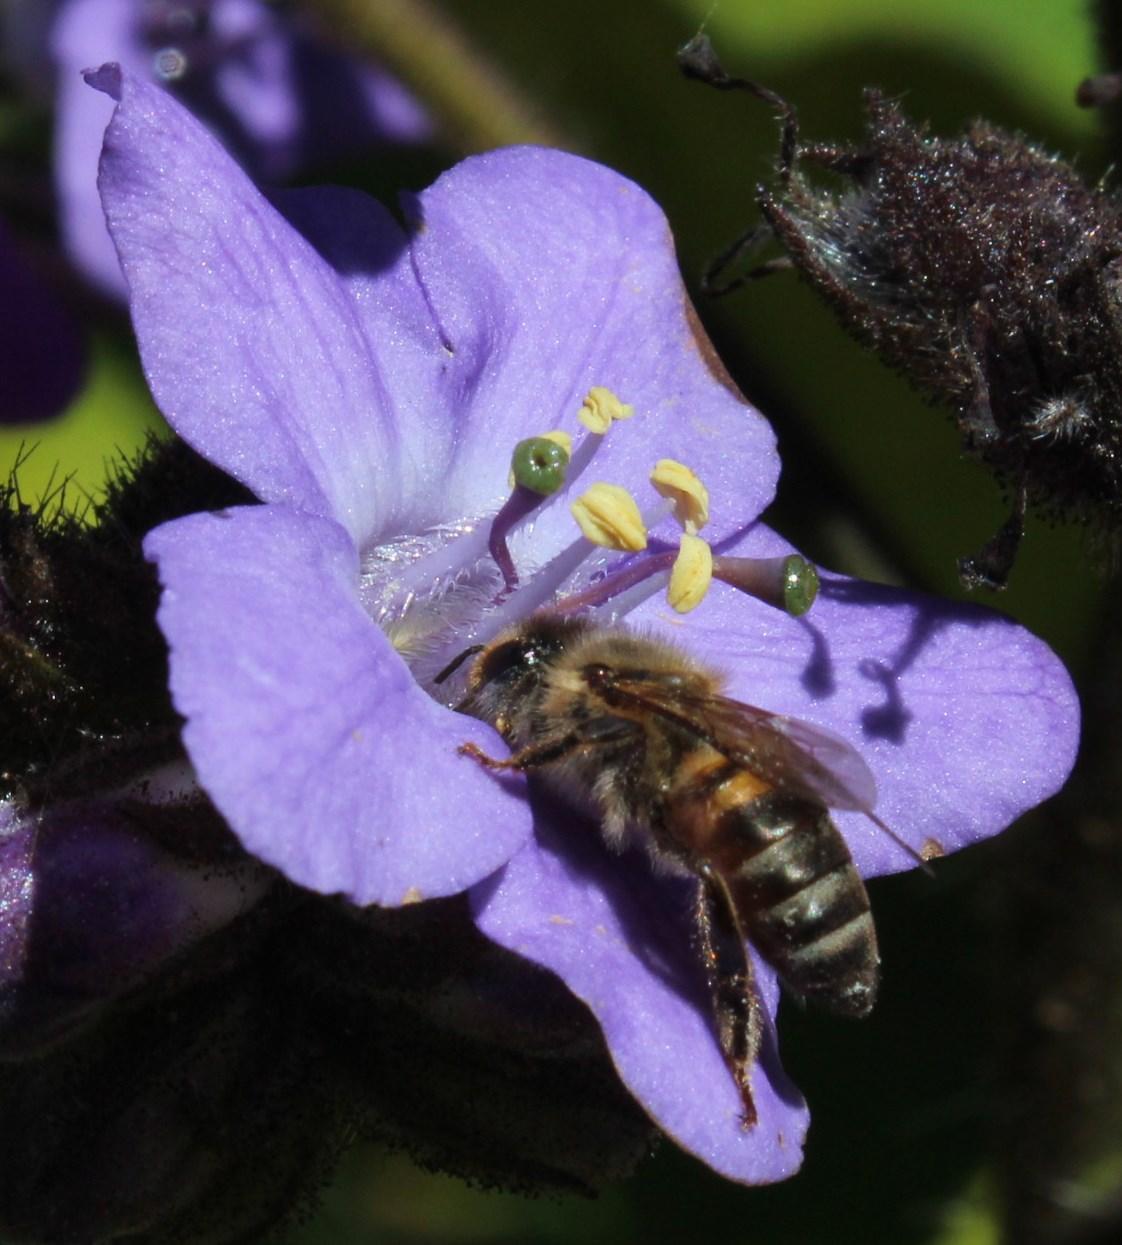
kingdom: Animalia
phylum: Arthropoda
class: Insecta
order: Hymenoptera
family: Apidae
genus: Apis
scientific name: Apis mellifera
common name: Honey bee
